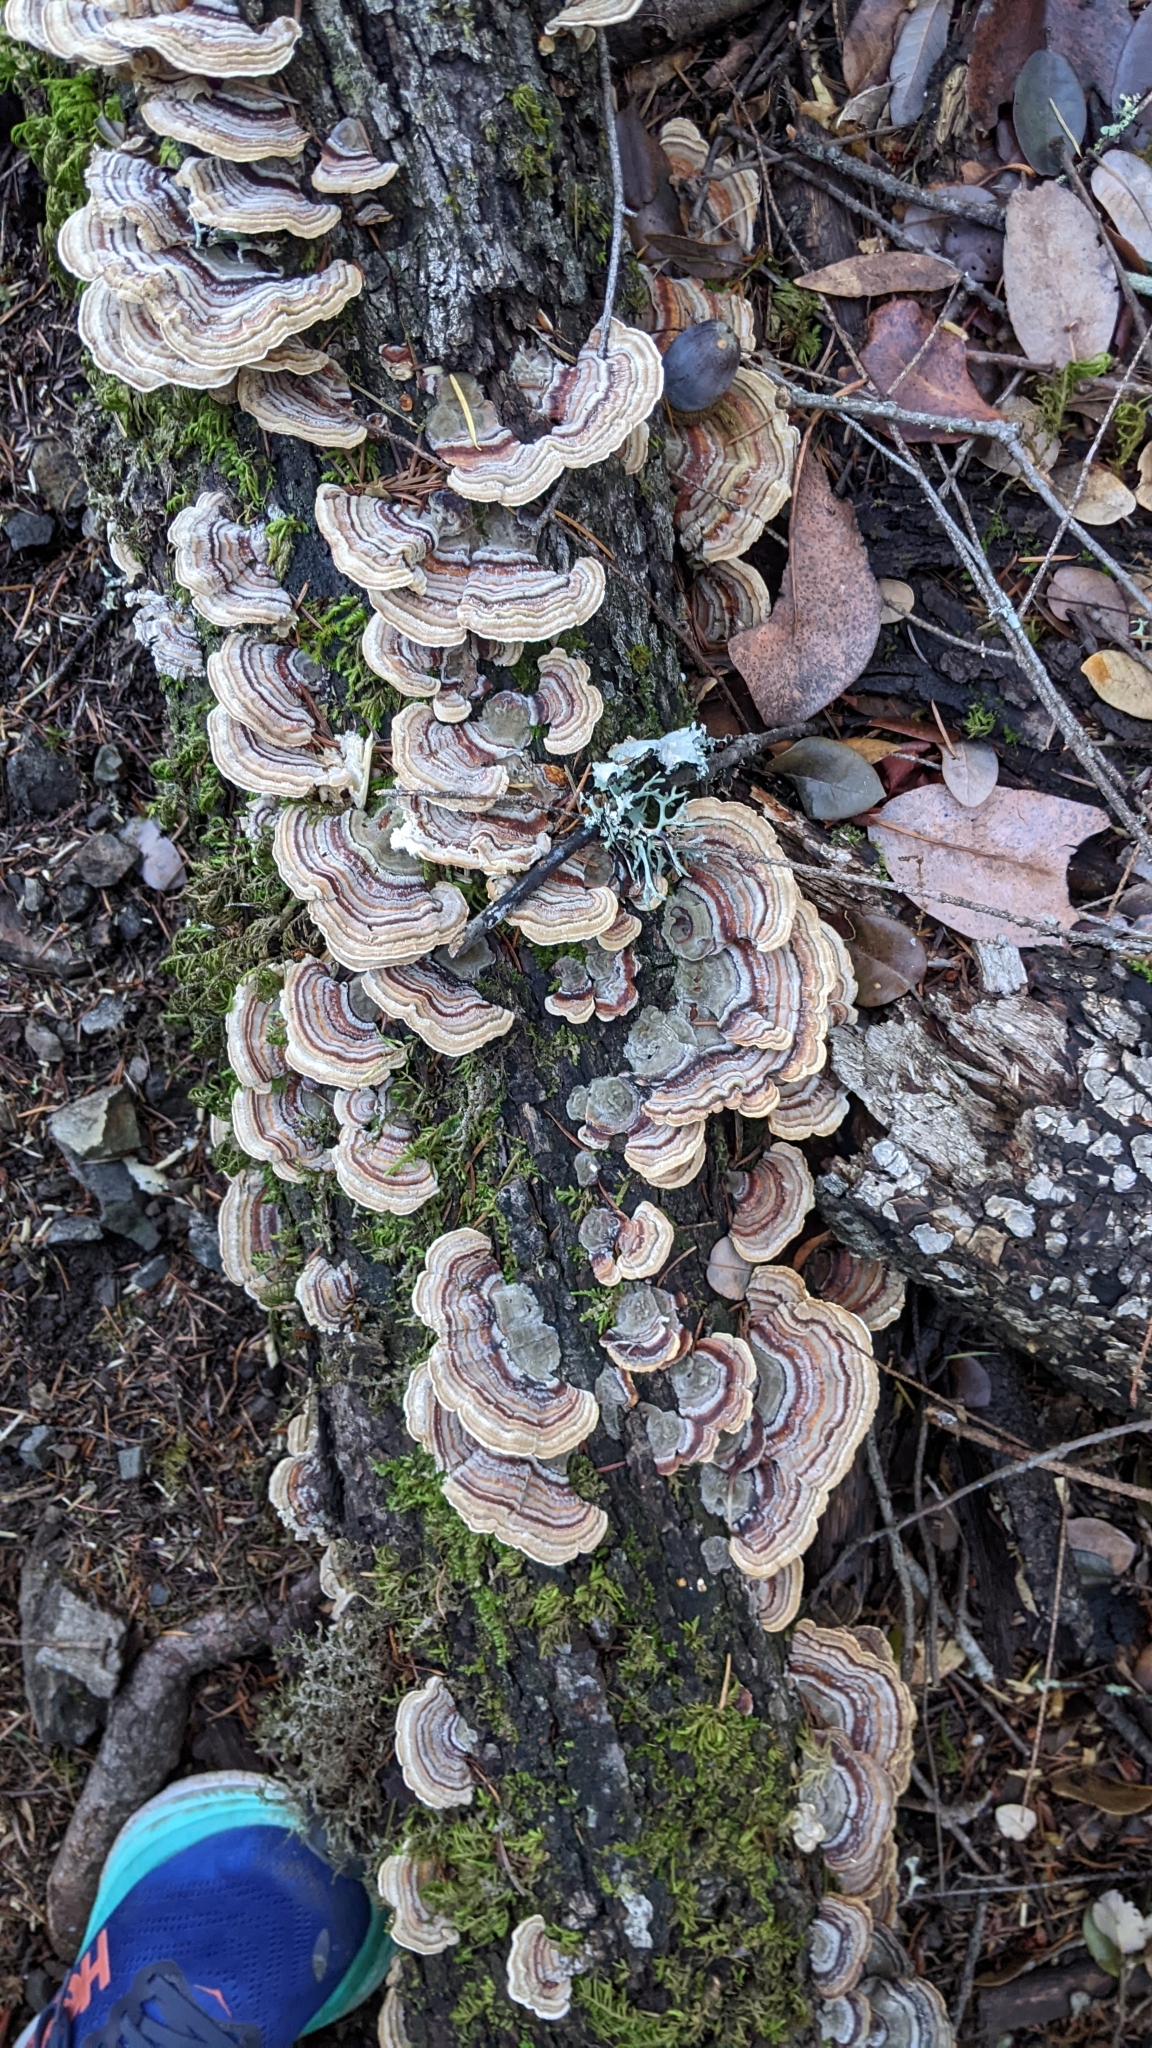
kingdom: Fungi
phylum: Basidiomycota
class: Agaricomycetes
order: Polyporales
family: Polyporaceae
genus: Trametes
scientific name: Trametes versicolor
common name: Turkeytail
